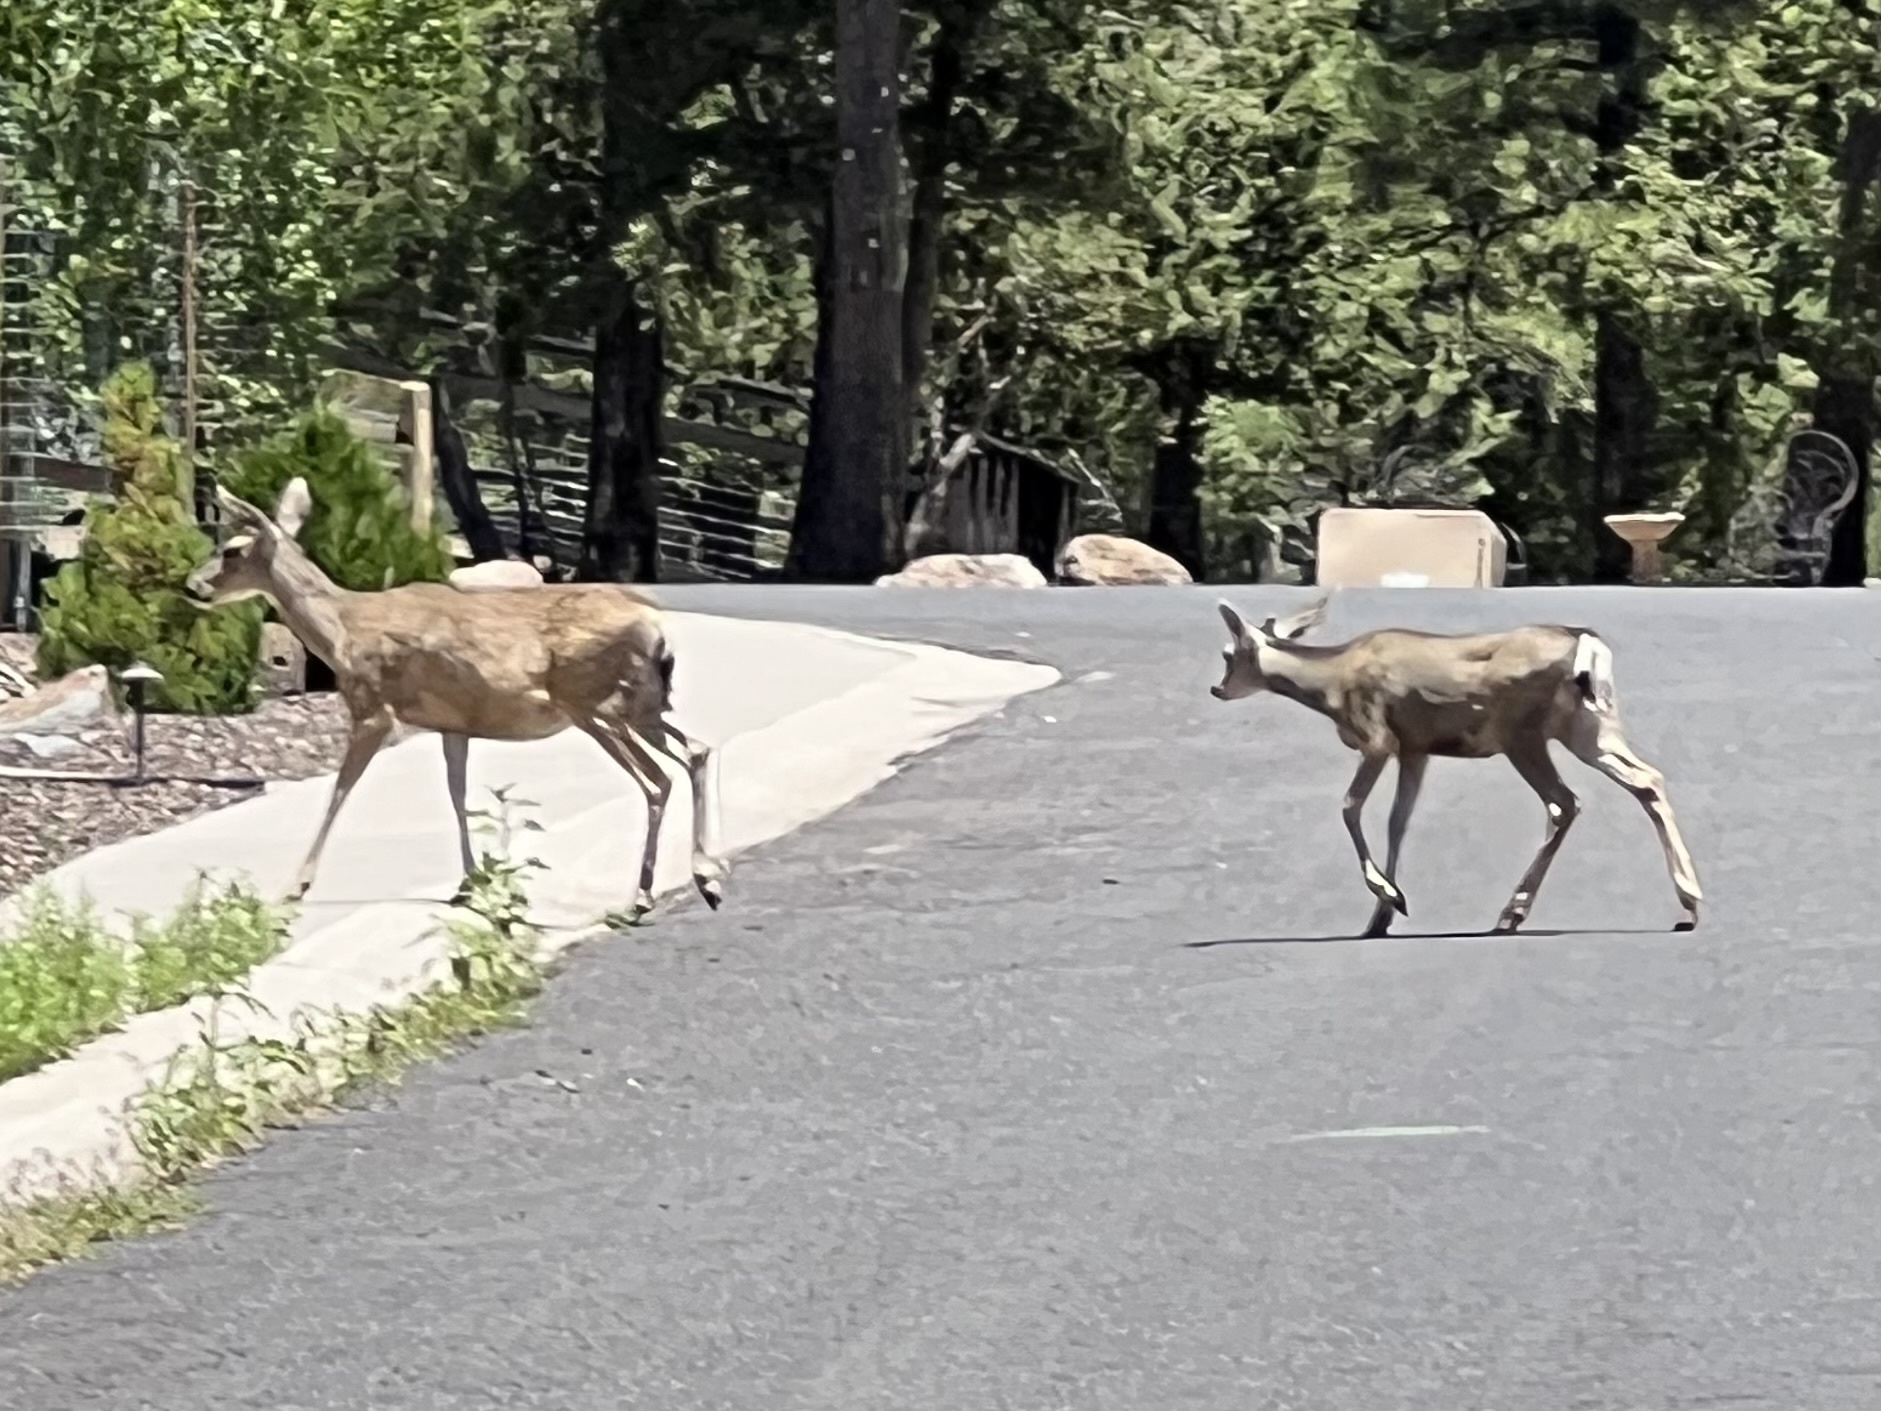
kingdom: Animalia
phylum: Chordata
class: Mammalia
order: Artiodactyla
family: Cervidae
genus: Odocoileus
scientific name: Odocoileus hemionus
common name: Mule deer
